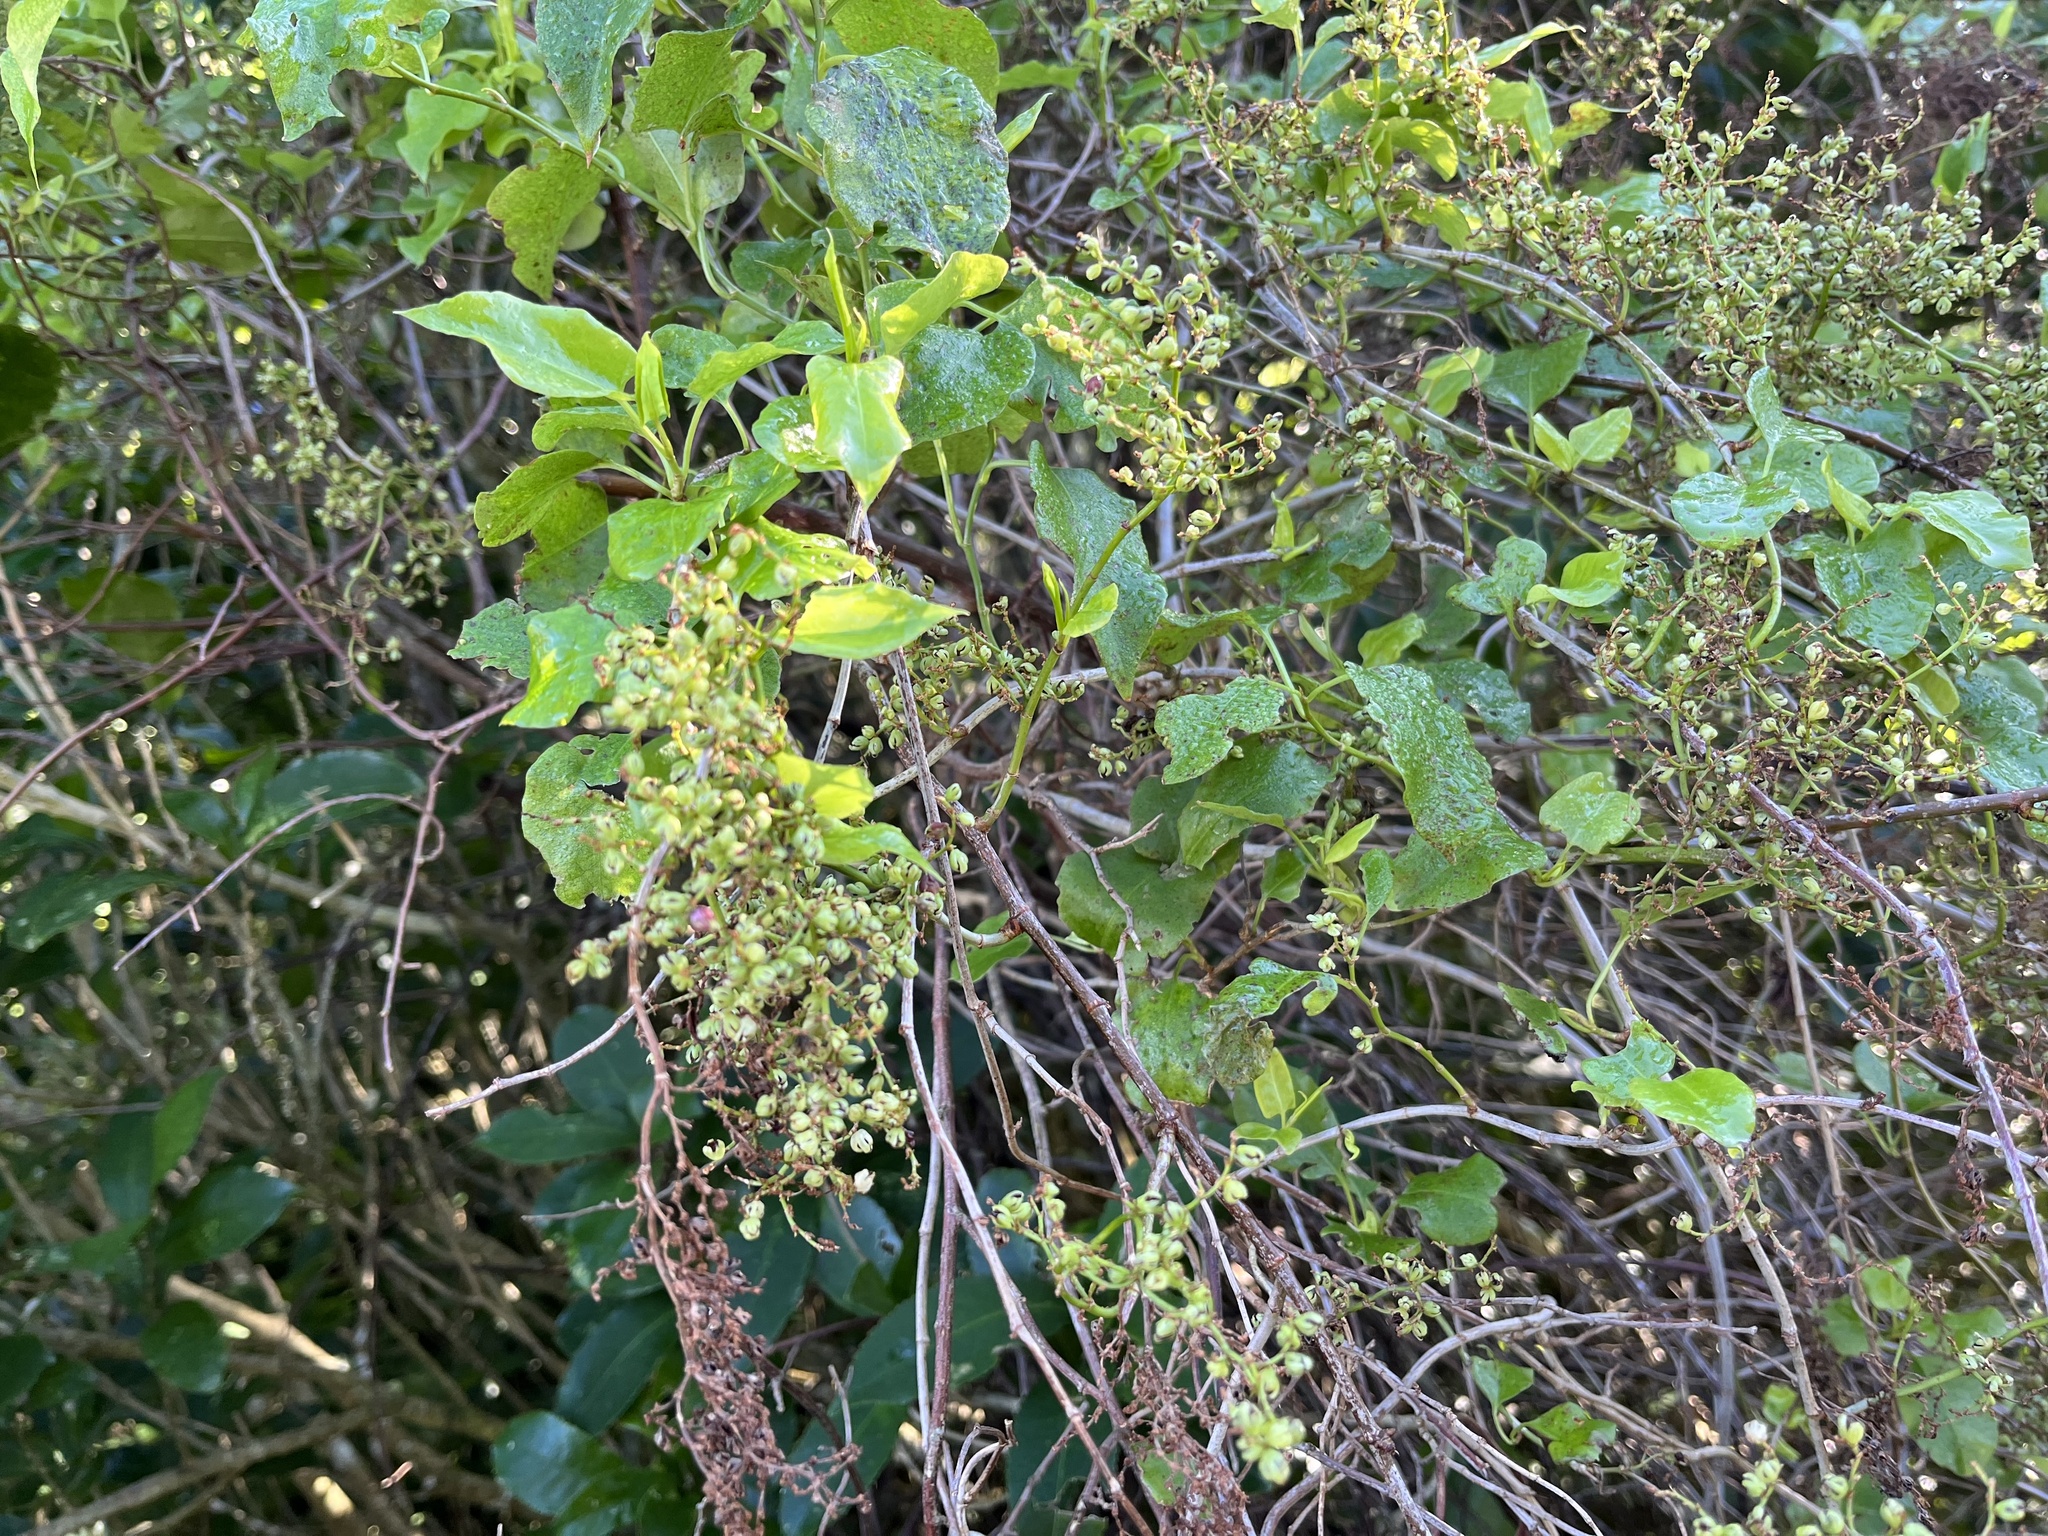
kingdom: Plantae
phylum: Tracheophyta
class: Magnoliopsida
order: Caryophyllales
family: Polygonaceae
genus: Muehlenbeckia
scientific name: Muehlenbeckia australis
